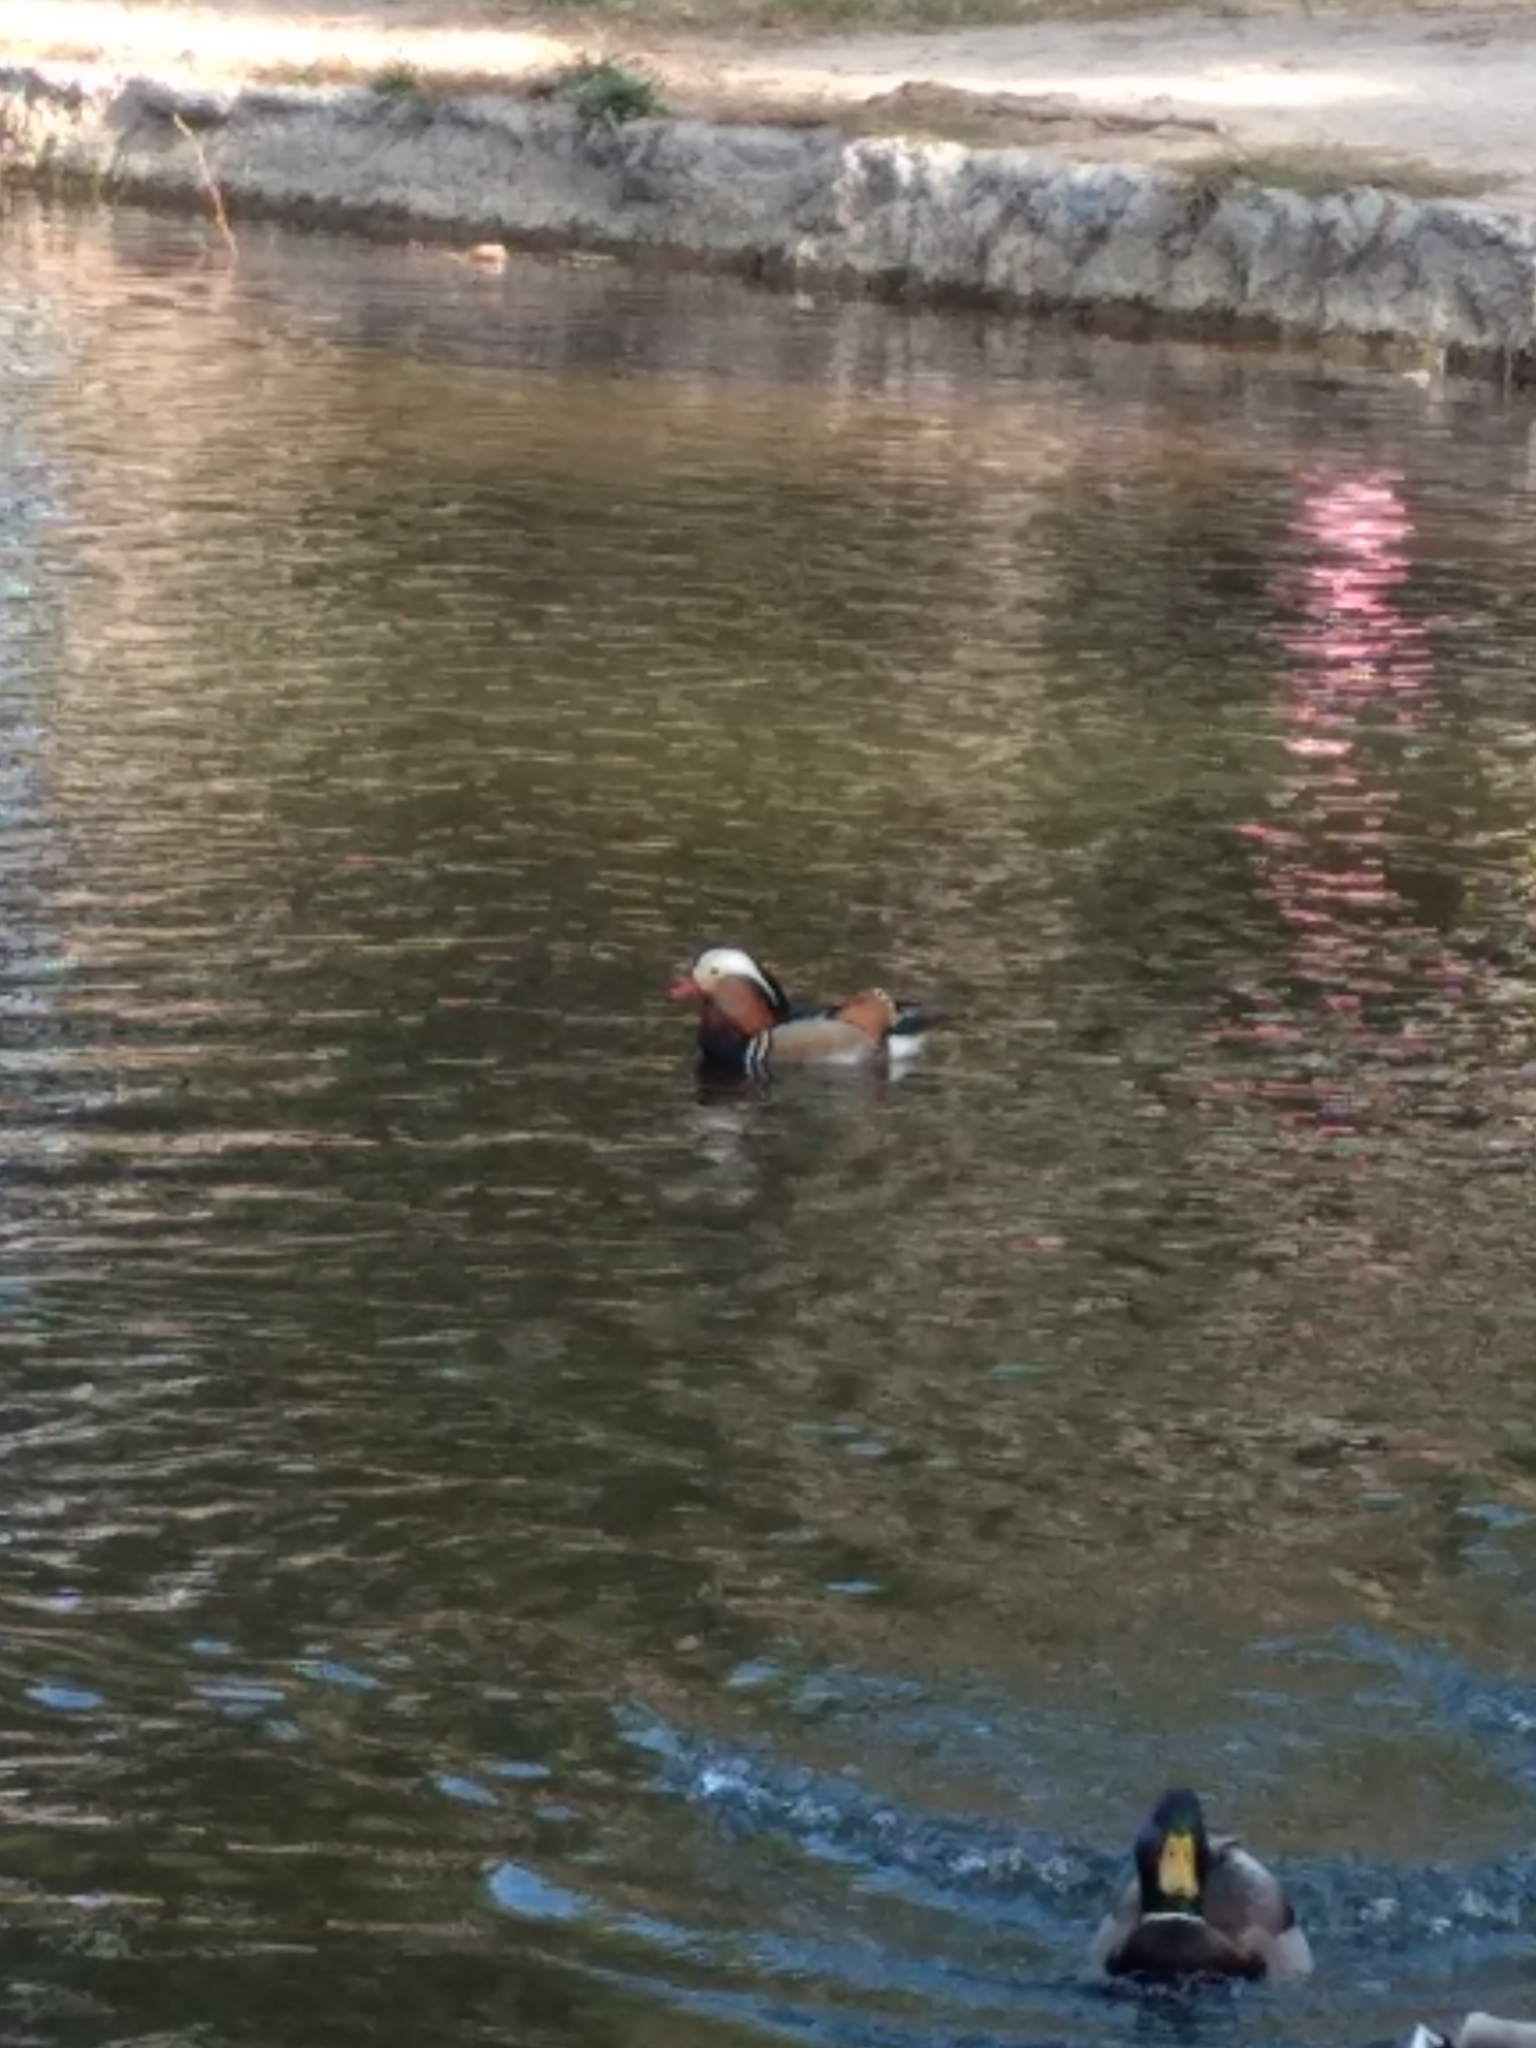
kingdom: Animalia
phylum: Chordata
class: Aves
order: Anseriformes
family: Anatidae
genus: Aix
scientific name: Aix galericulata
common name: Mandarin duck
